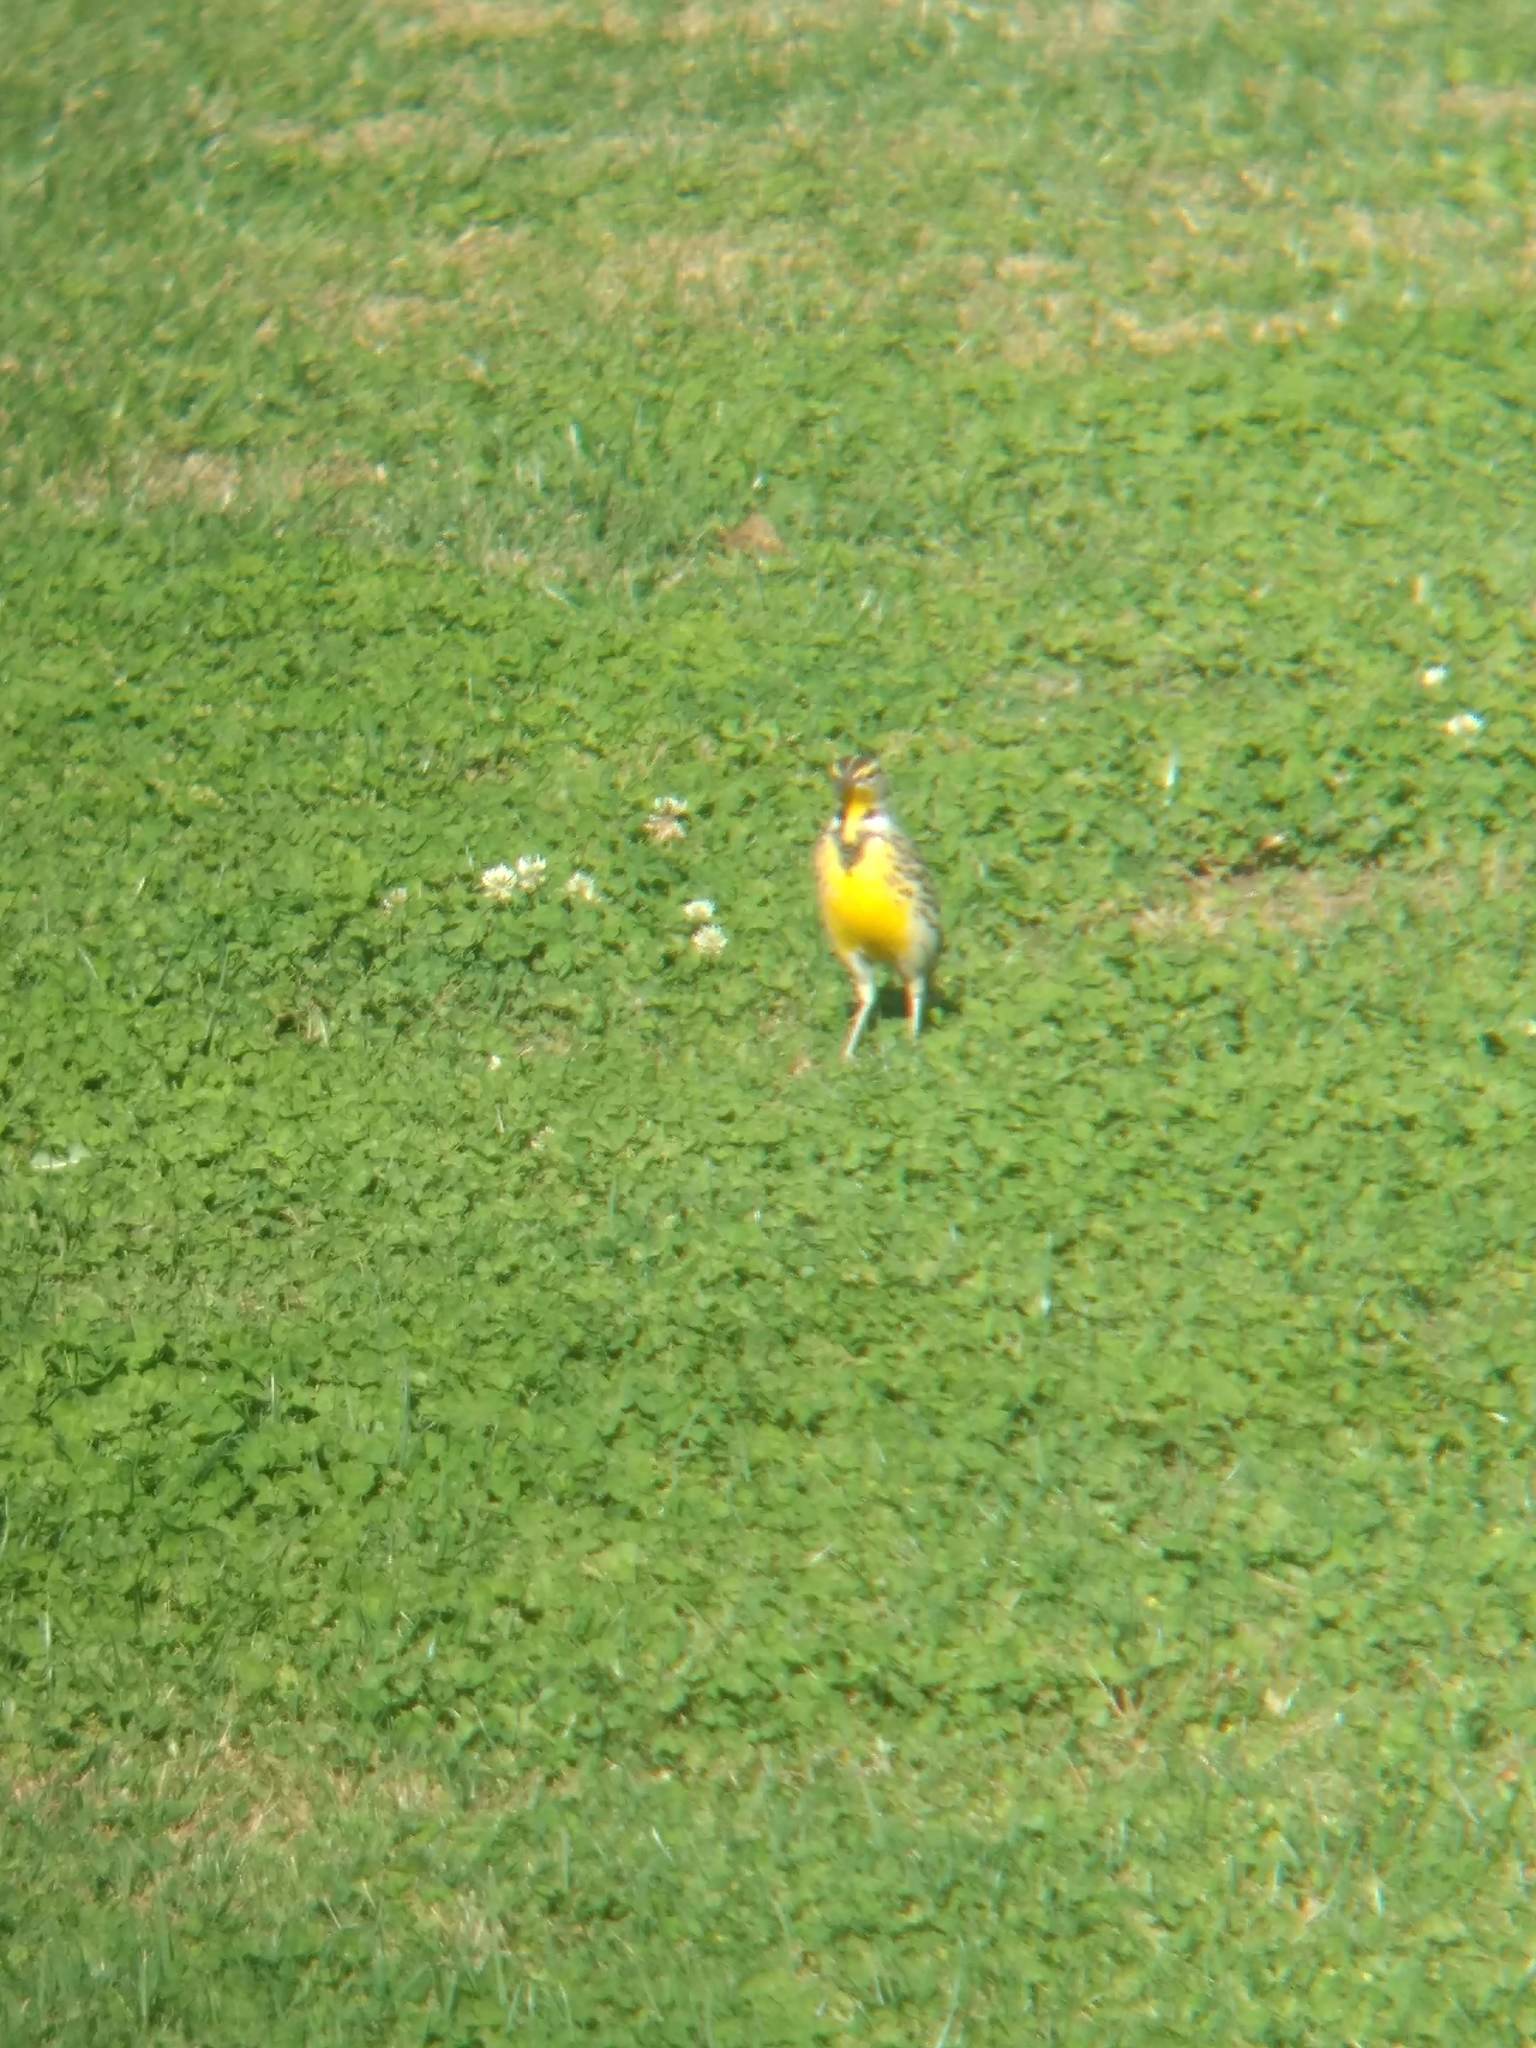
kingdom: Animalia
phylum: Chordata
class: Aves
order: Passeriformes
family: Icteridae
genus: Sturnella
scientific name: Sturnella neglecta
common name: Western meadowlark
